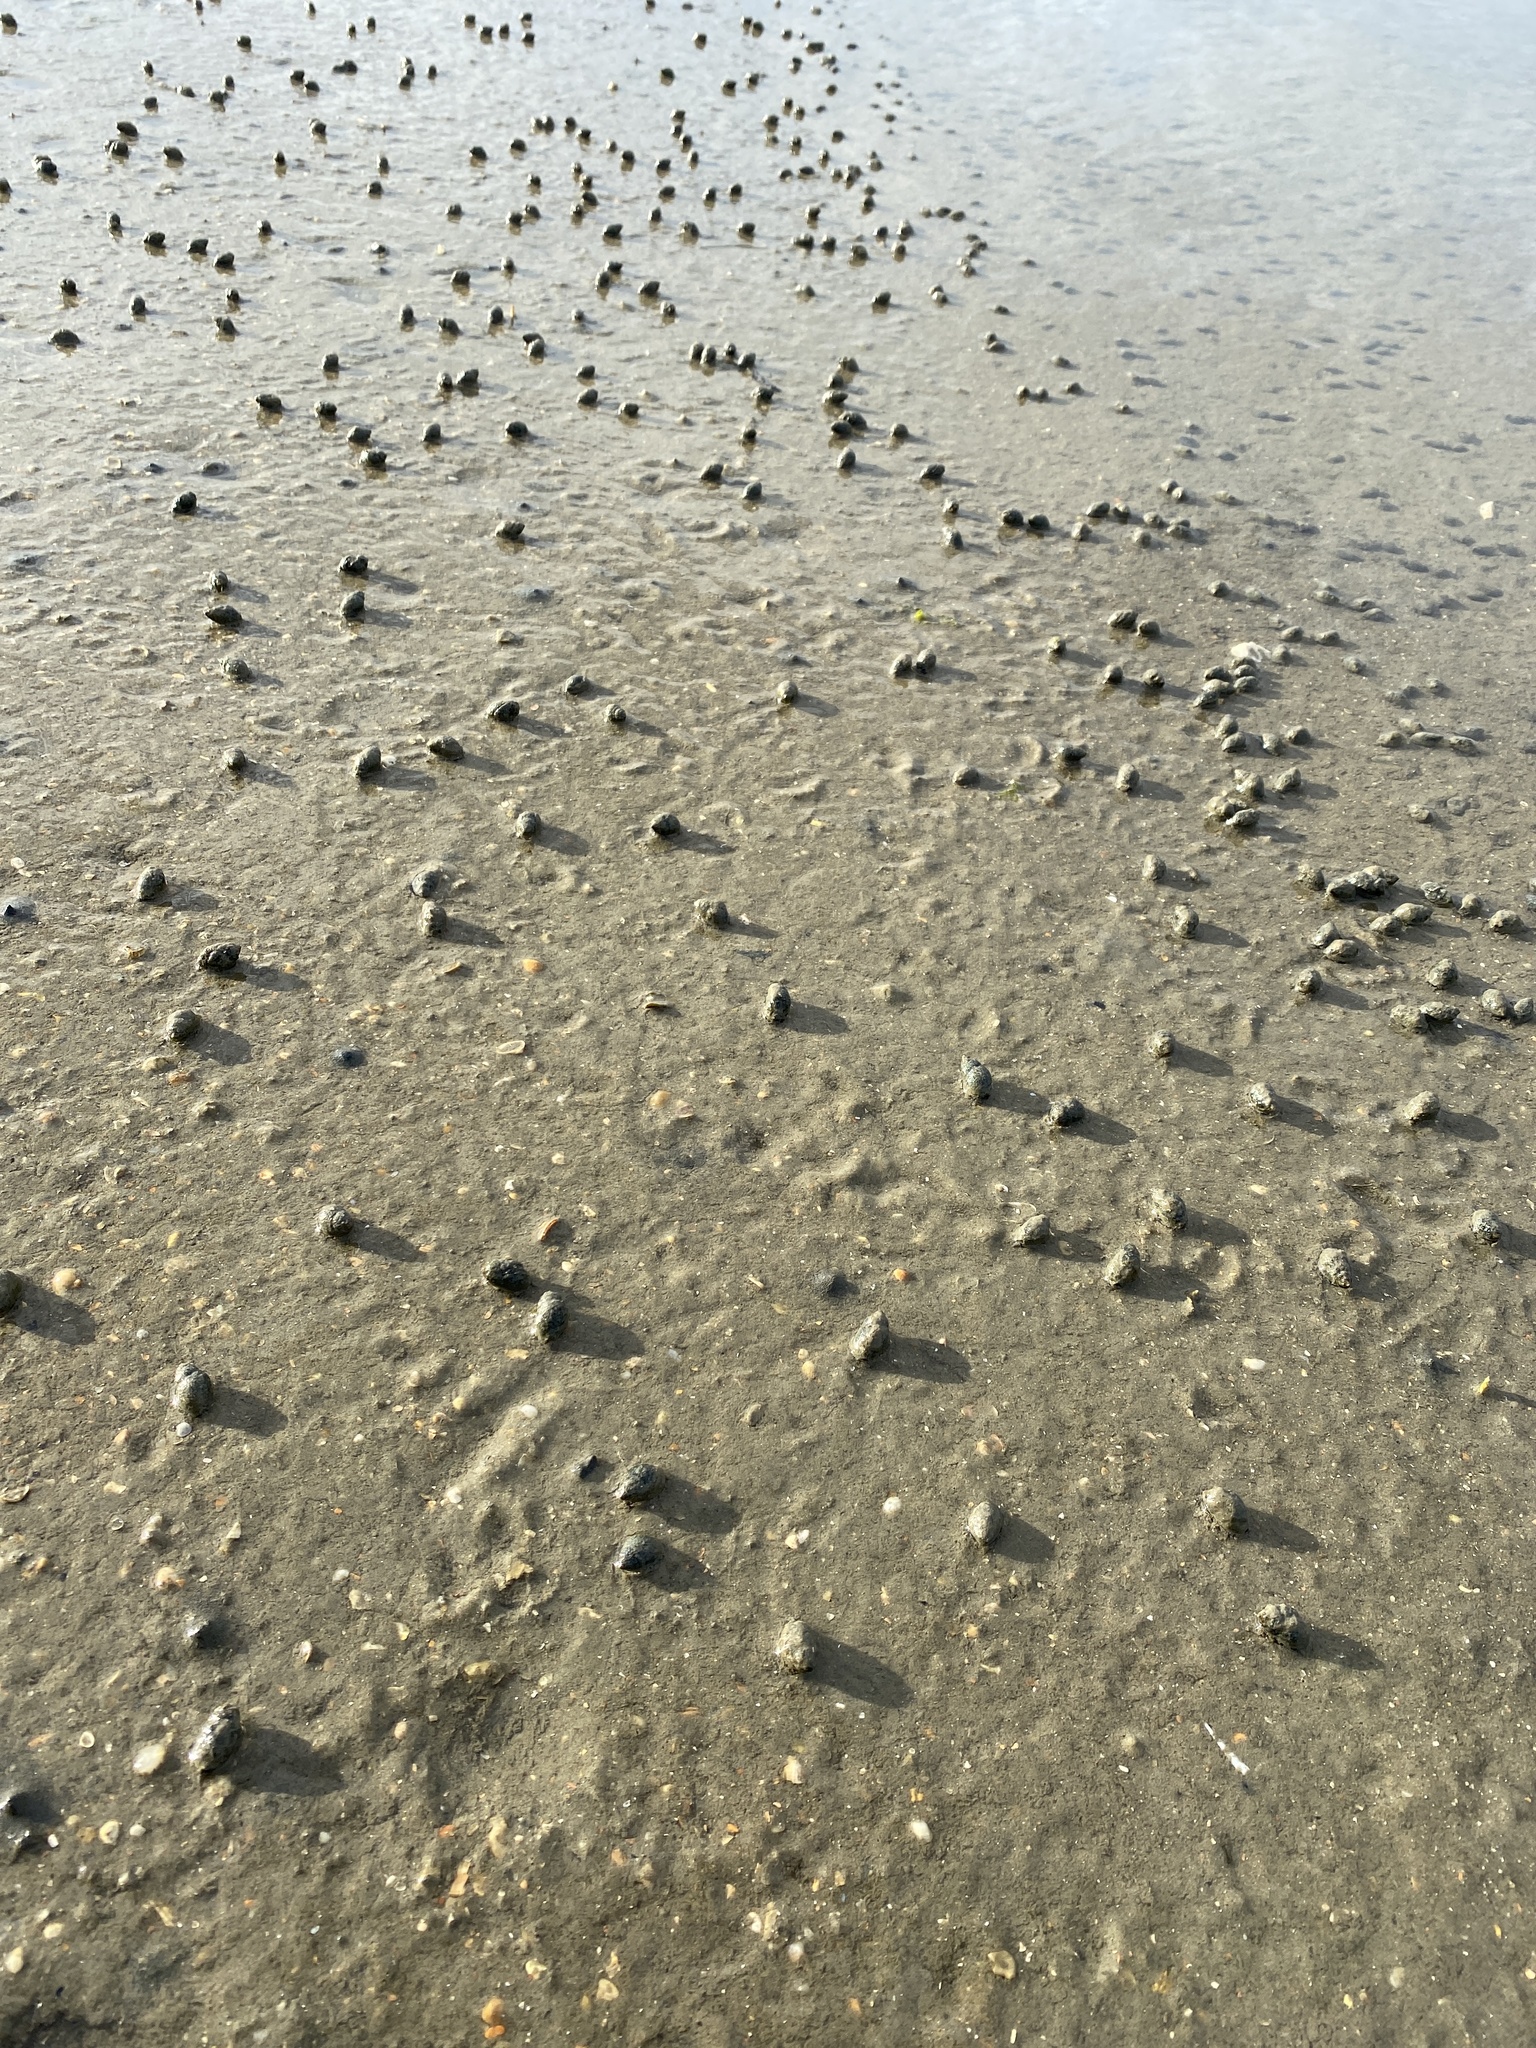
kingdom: Animalia
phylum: Mollusca
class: Gastropoda
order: Neogastropoda
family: Nassariidae
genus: Ilyanassa
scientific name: Ilyanassa obsoleta
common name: Eastern mudsnail
